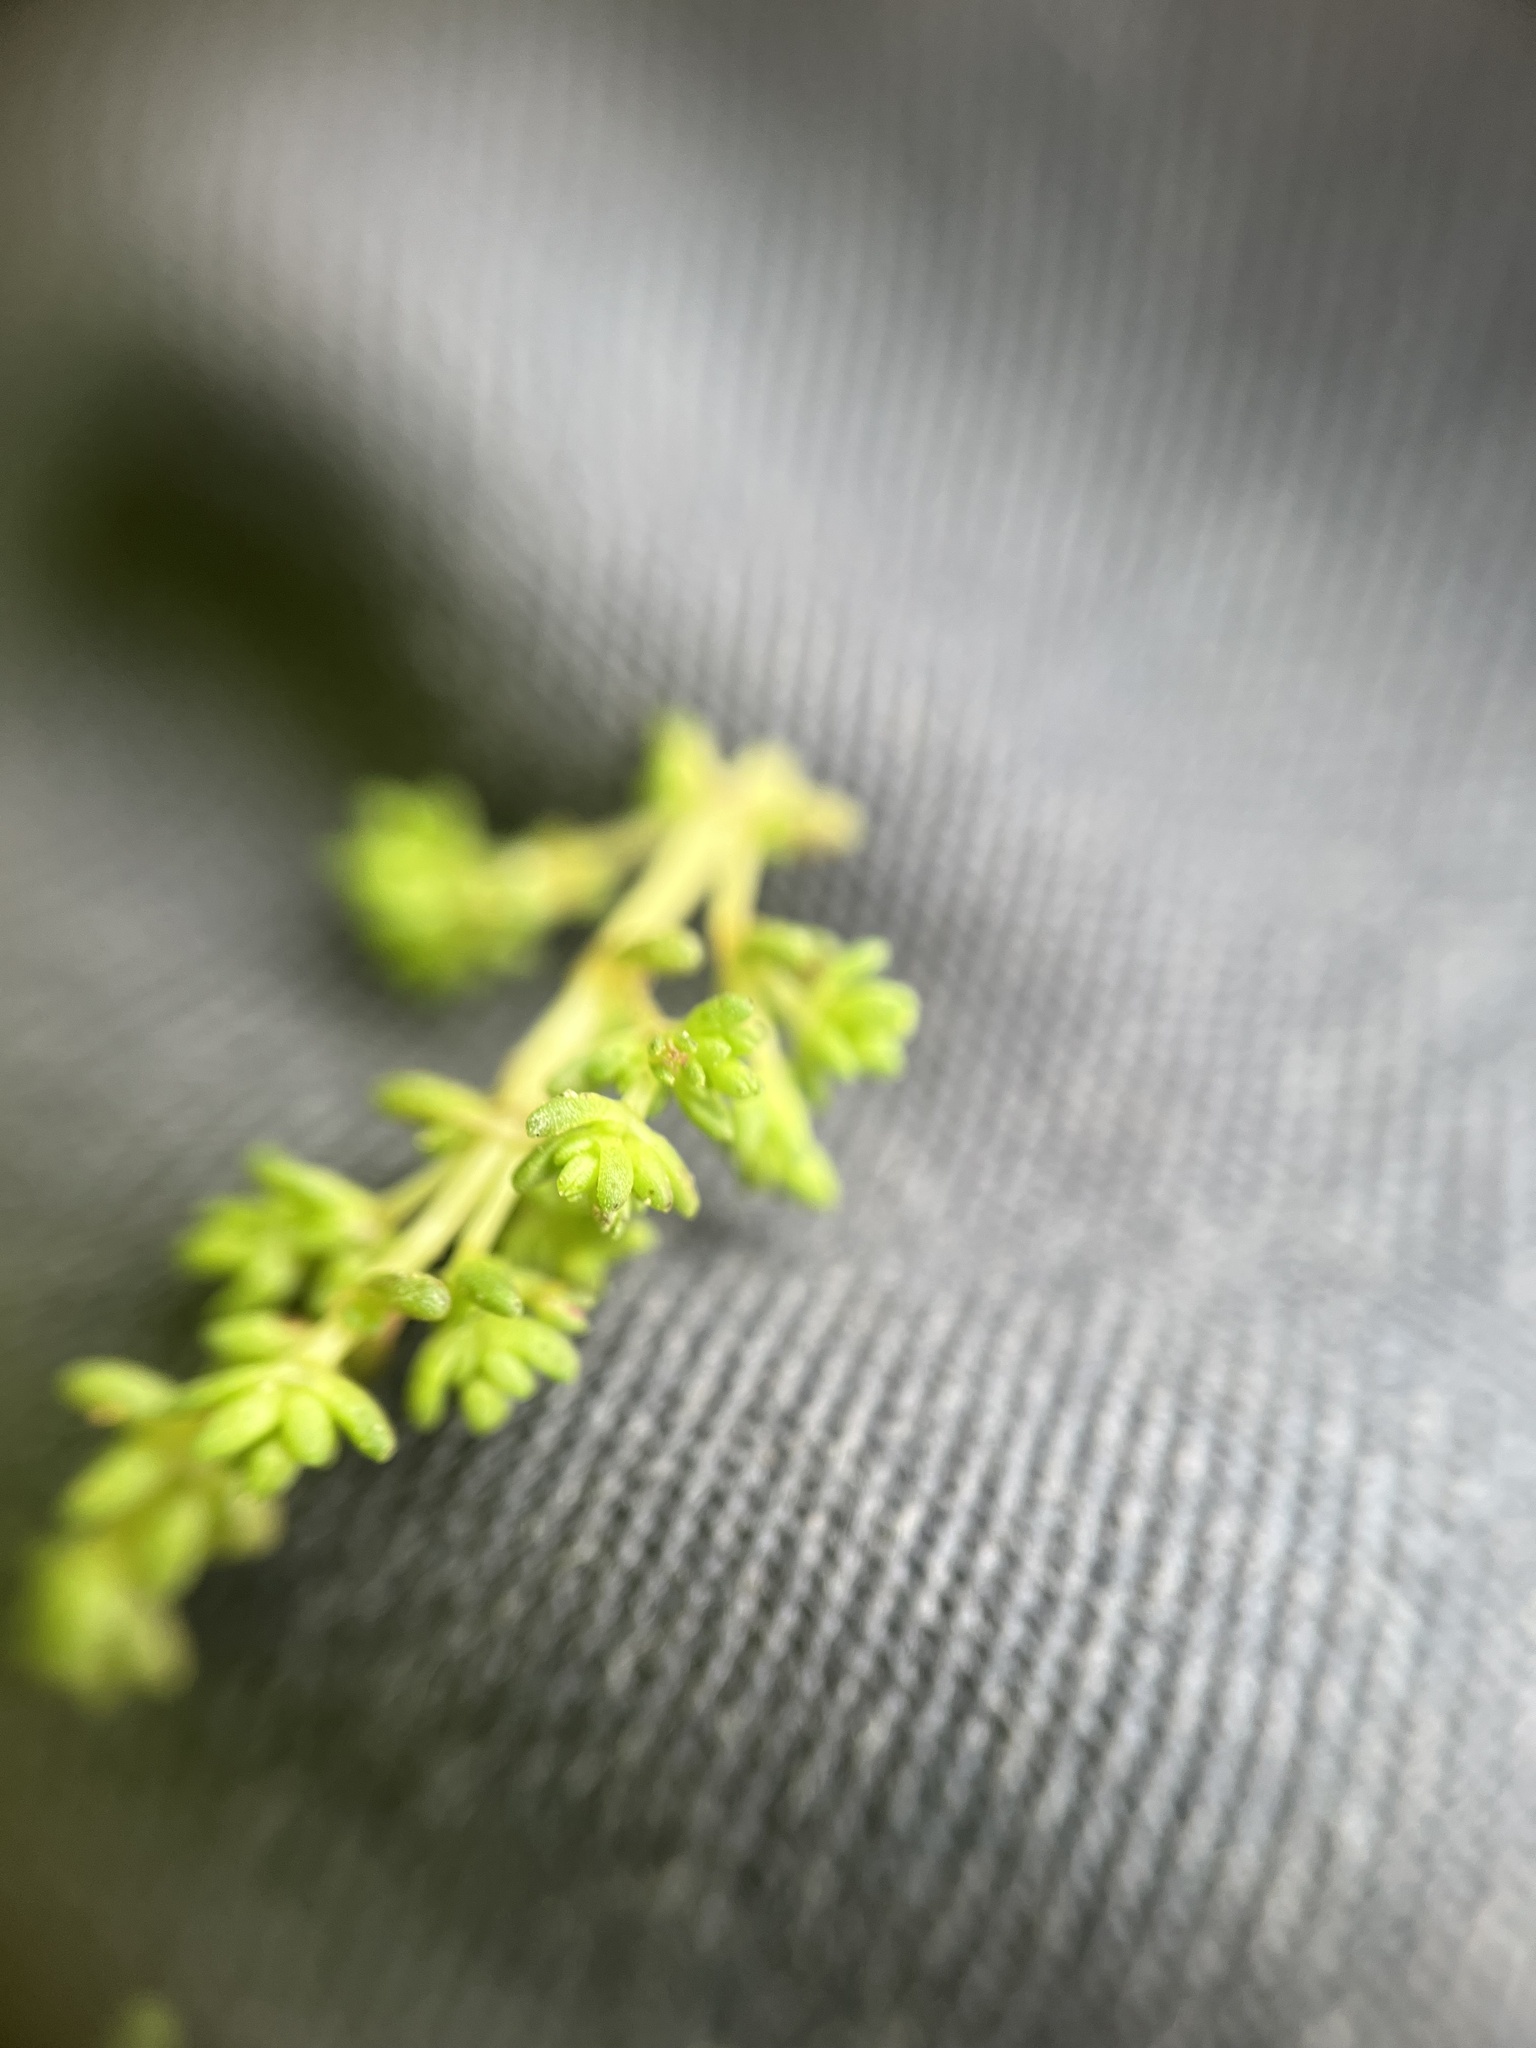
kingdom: Plantae
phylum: Tracheophyta
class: Magnoliopsida
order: Saxifragales
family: Crassulaceae
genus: Crassula
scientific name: Crassula connata
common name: Erect pygmyweed
